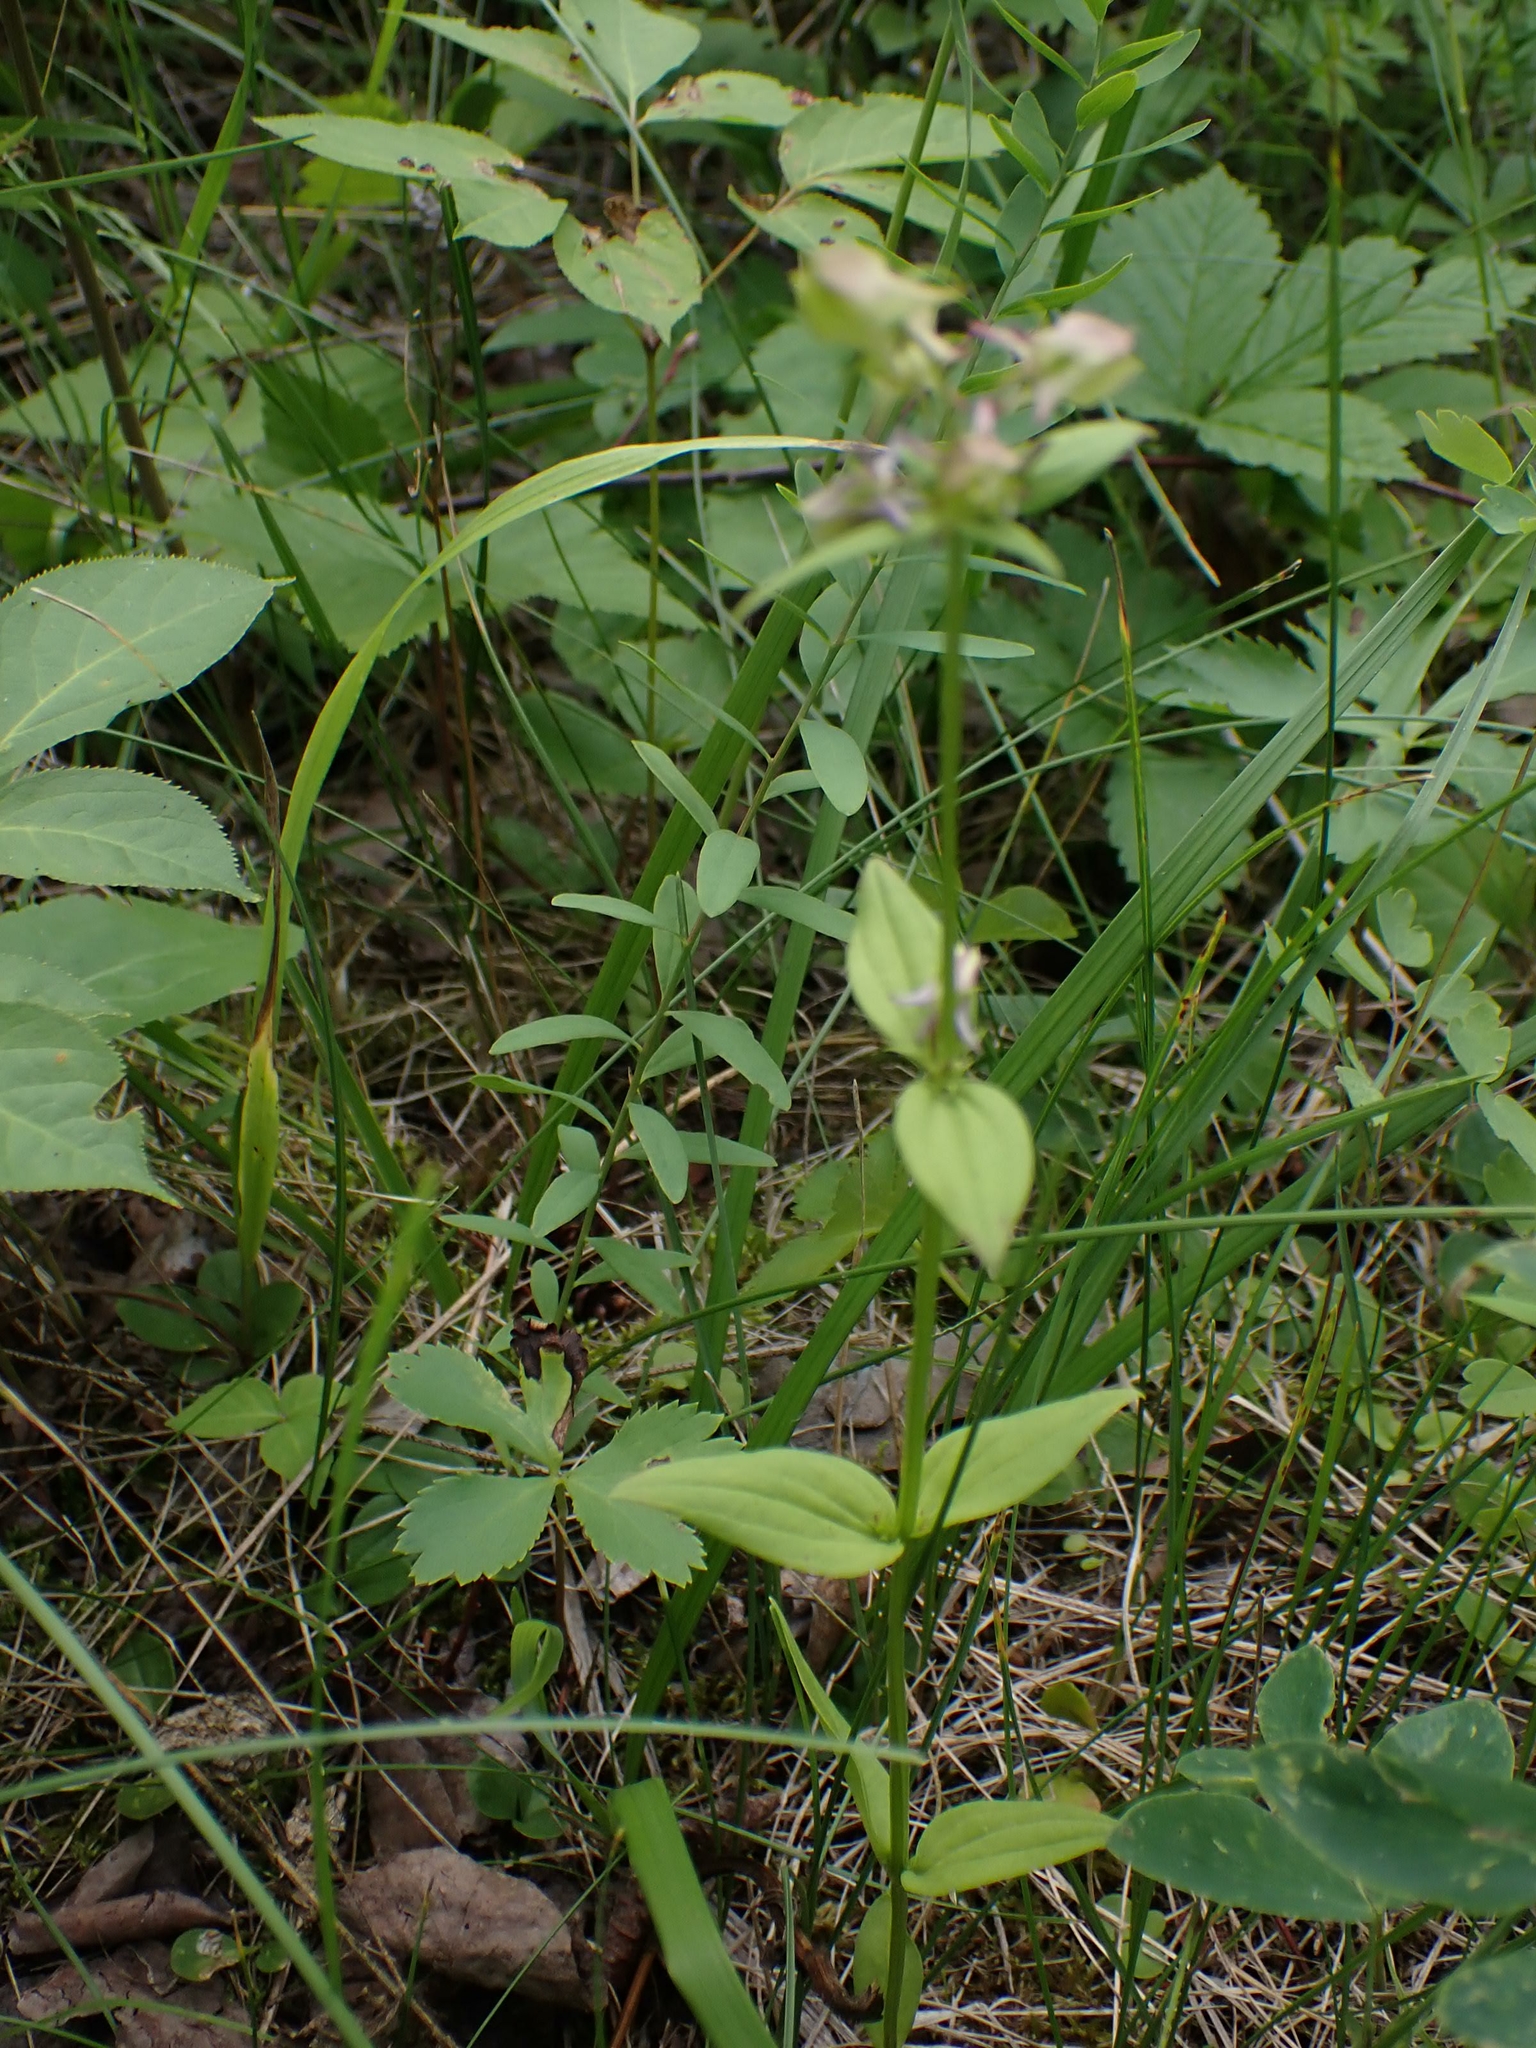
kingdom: Plantae
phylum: Tracheophyta
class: Magnoliopsida
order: Gentianales
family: Gentianaceae
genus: Halenia
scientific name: Halenia deflexa
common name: American spurred gentian
